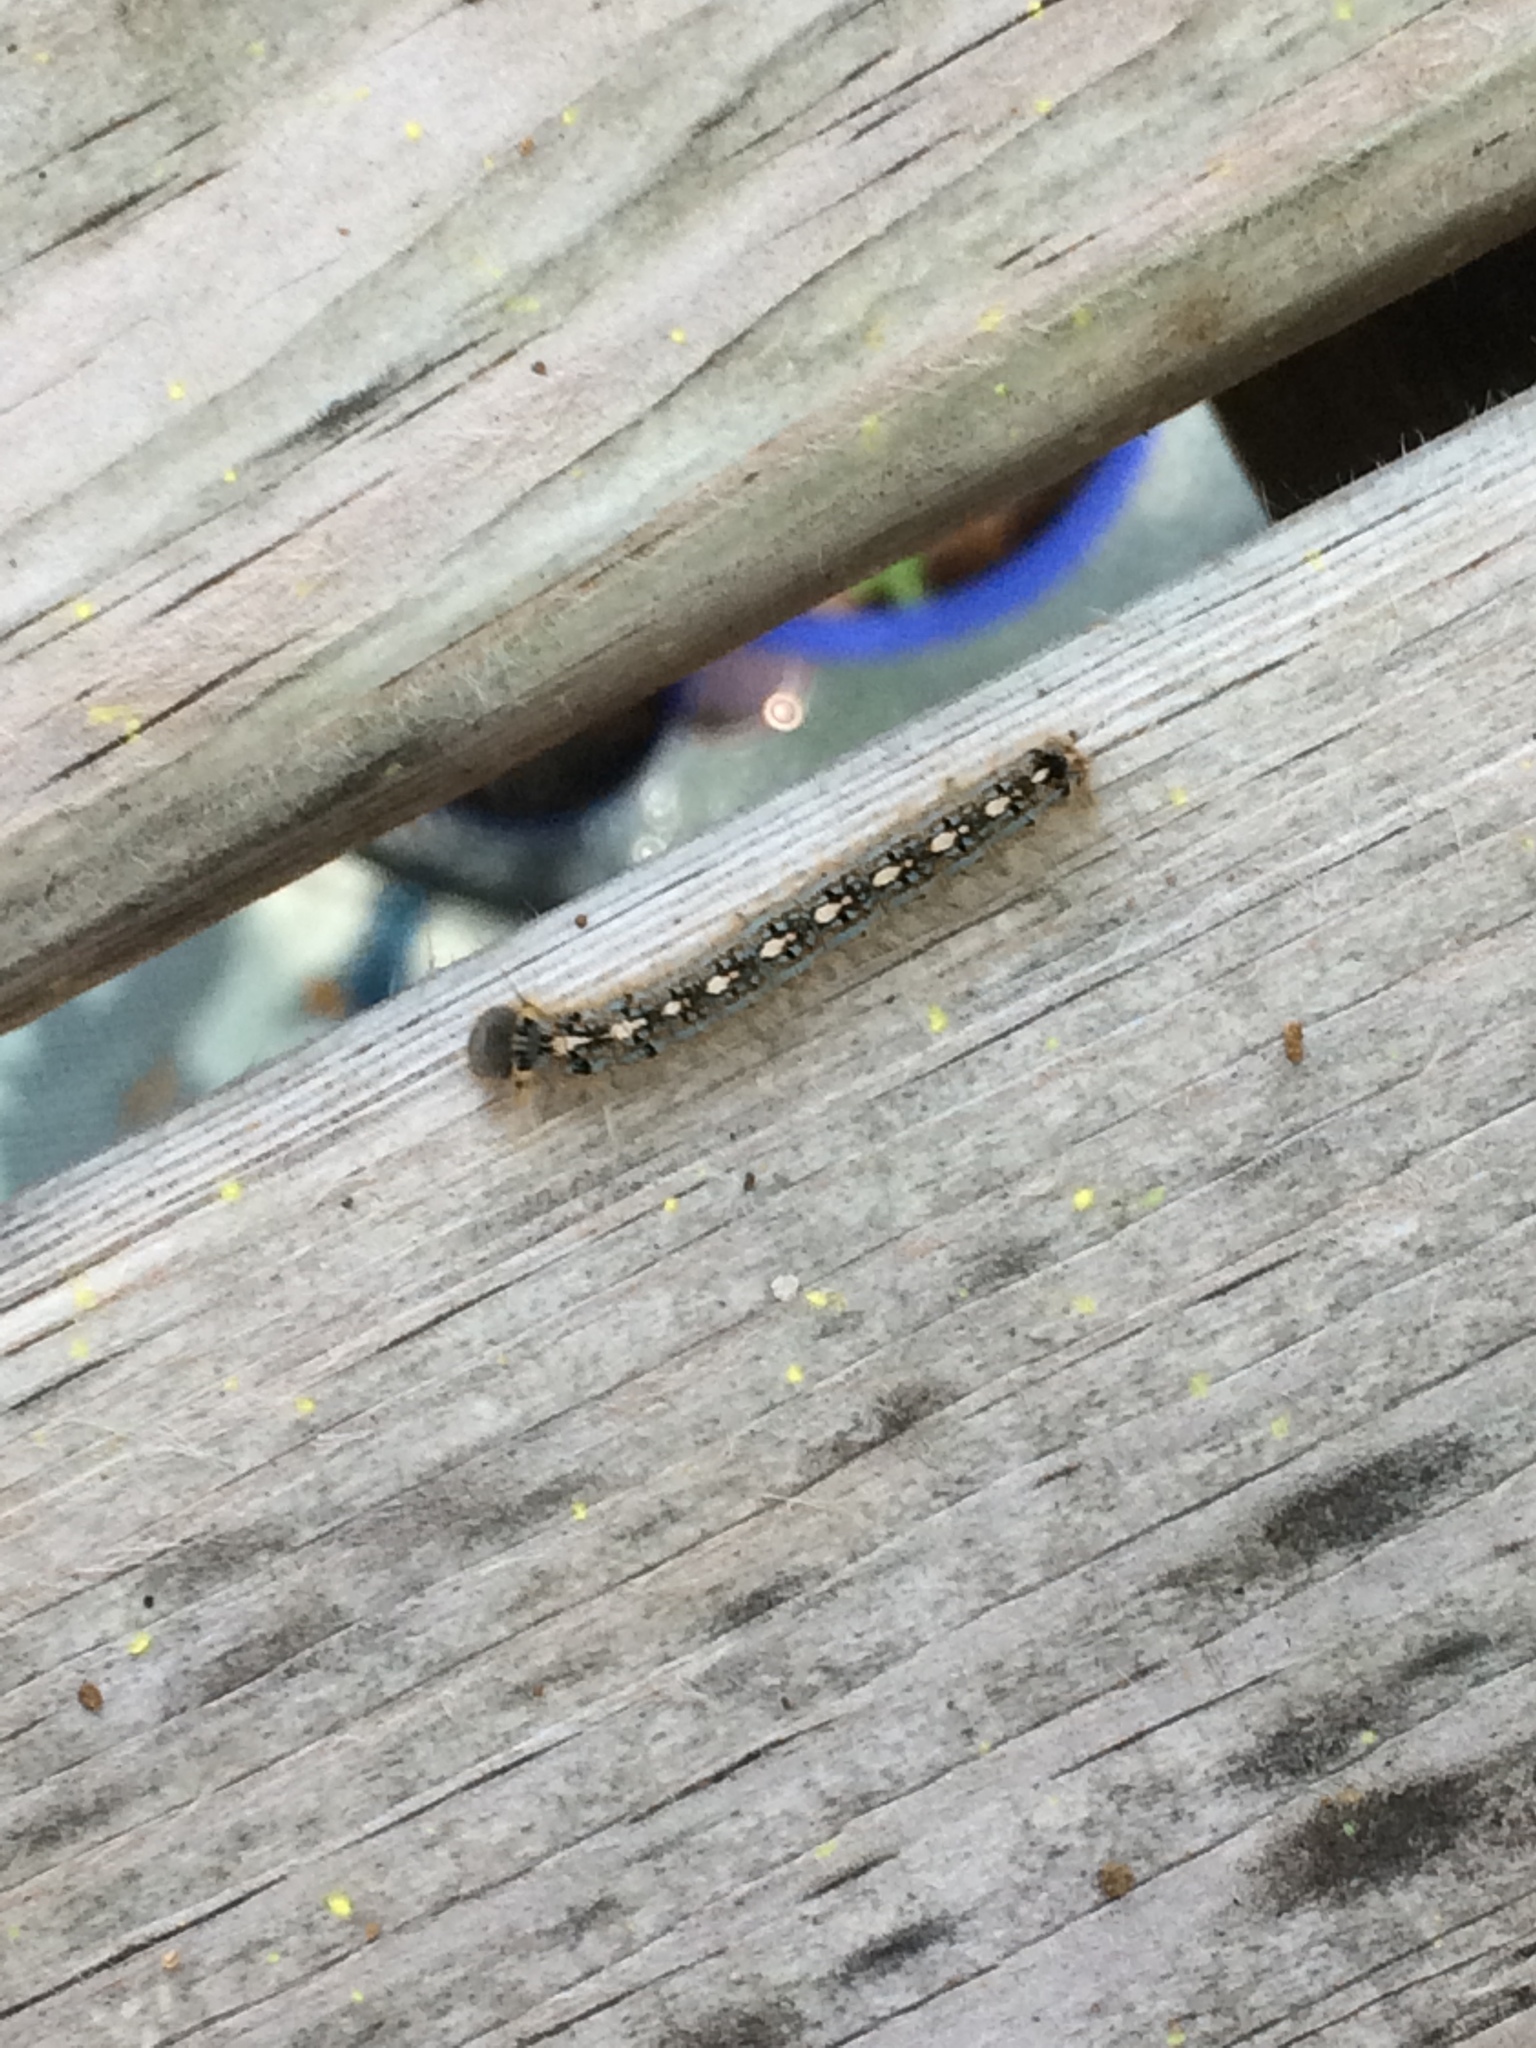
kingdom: Animalia
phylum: Arthropoda
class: Insecta
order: Lepidoptera
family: Lasiocampidae
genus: Malacosoma
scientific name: Malacosoma disstria
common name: Forest tent caterpillar
